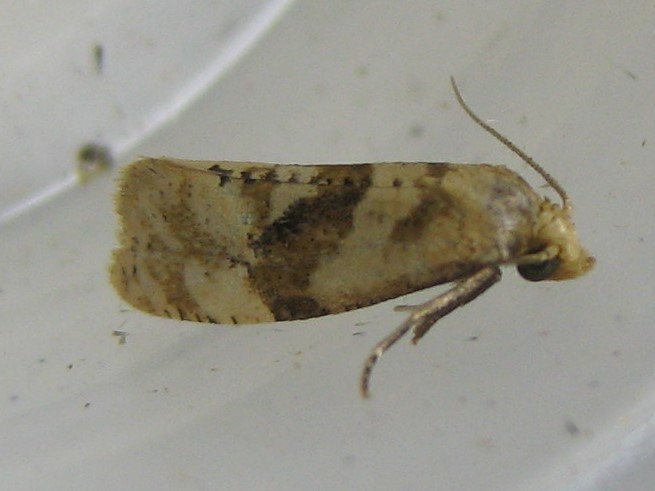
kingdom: Animalia
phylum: Arthropoda
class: Insecta
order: Lepidoptera
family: Tortricidae
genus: Gynnidomorpha
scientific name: Gynnidomorpha romonana
